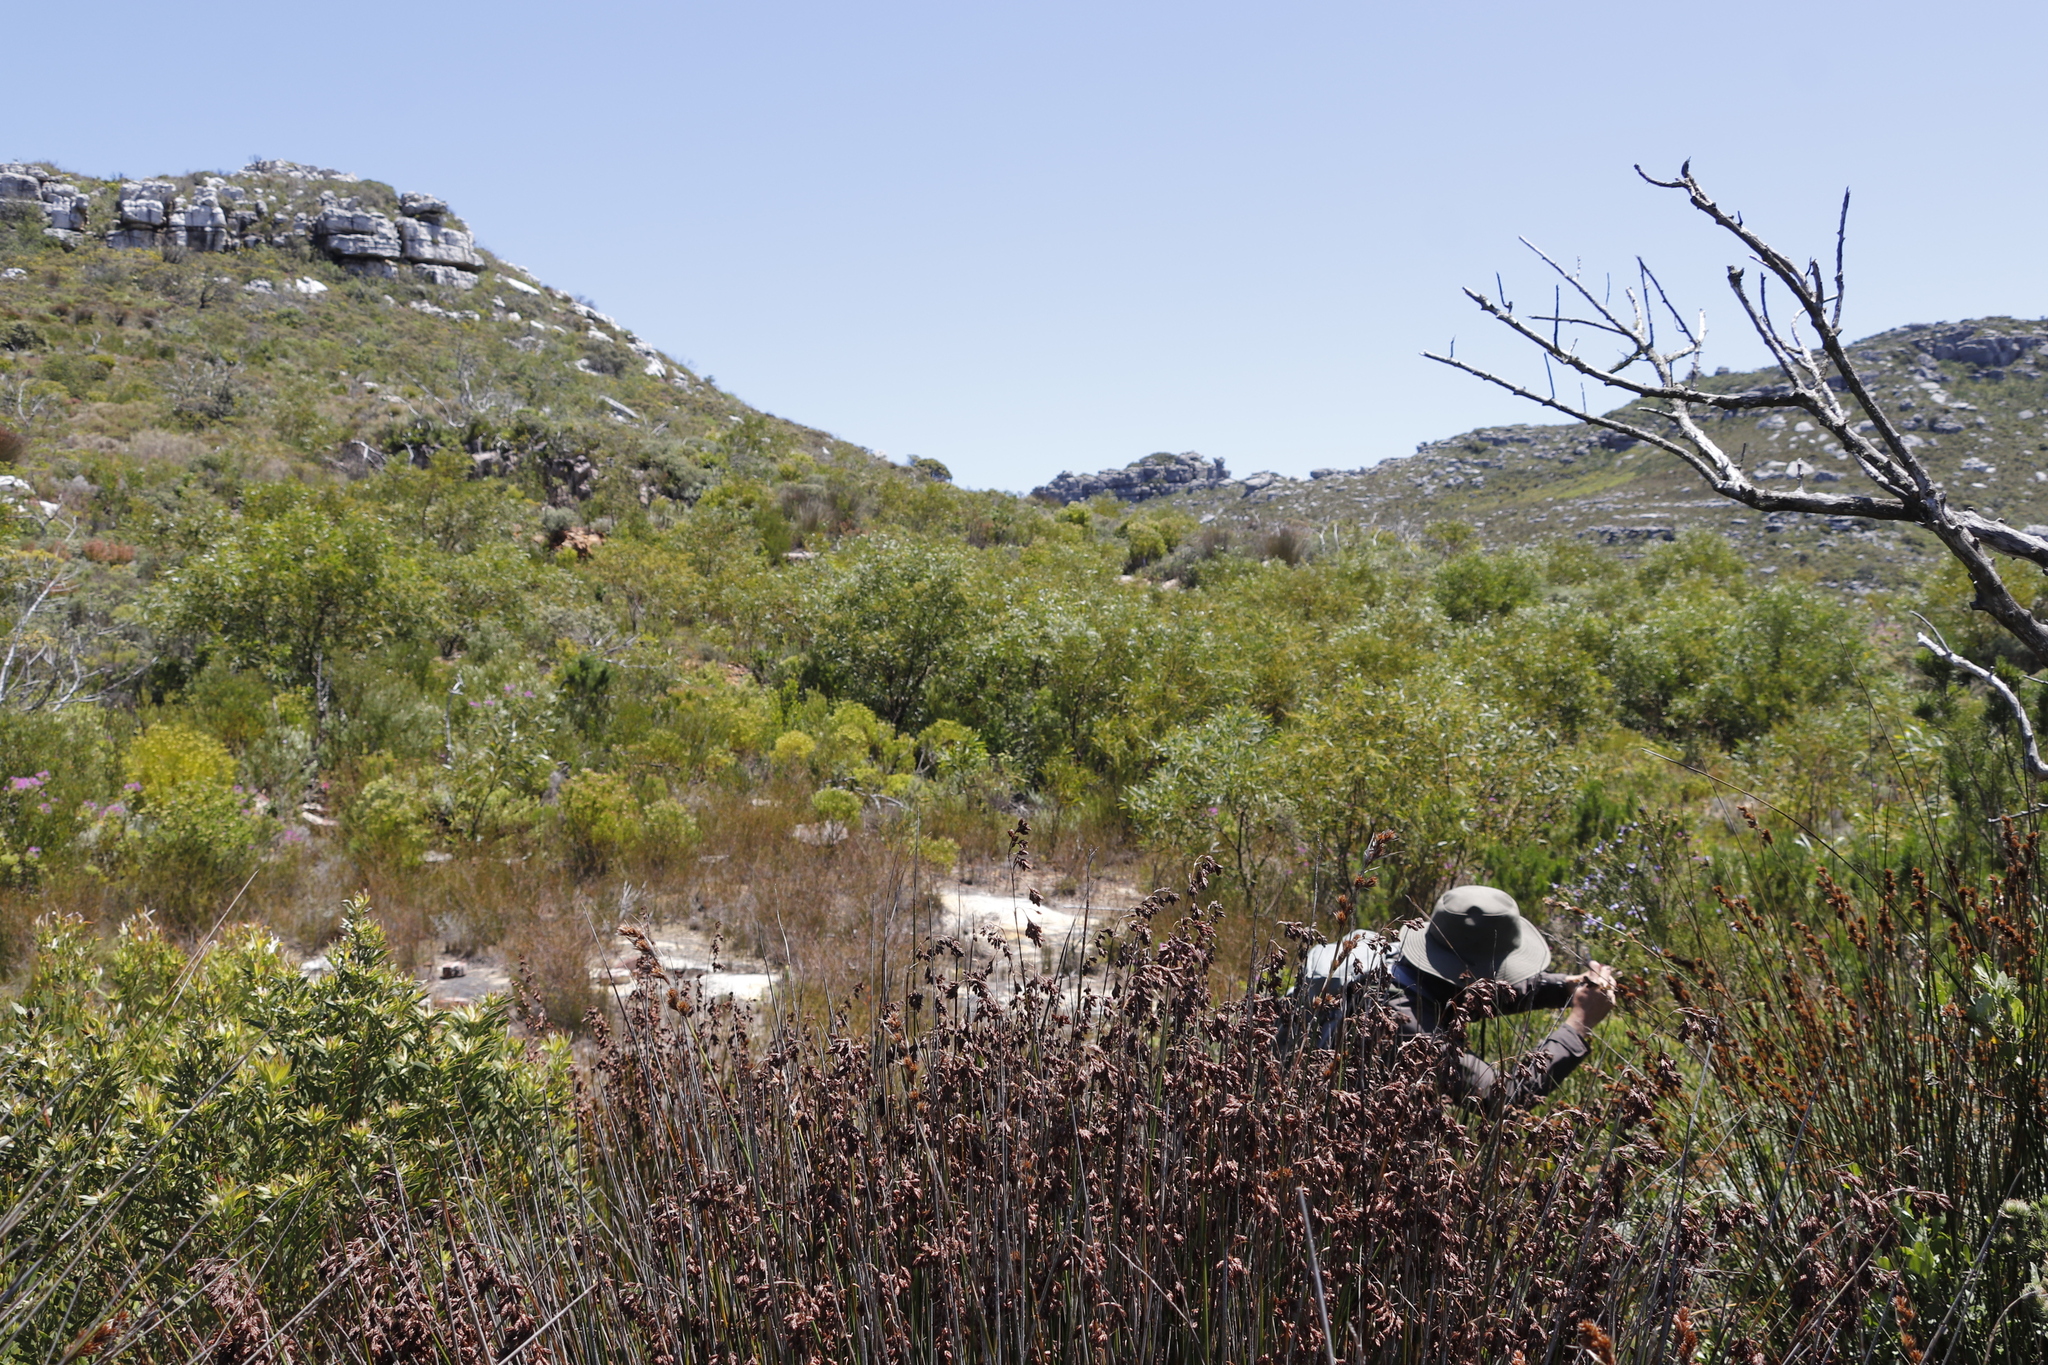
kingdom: Plantae
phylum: Tracheophyta
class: Magnoliopsida
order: Fabales
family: Fabaceae
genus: Acacia
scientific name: Acacia saligna
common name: Orange wattle
